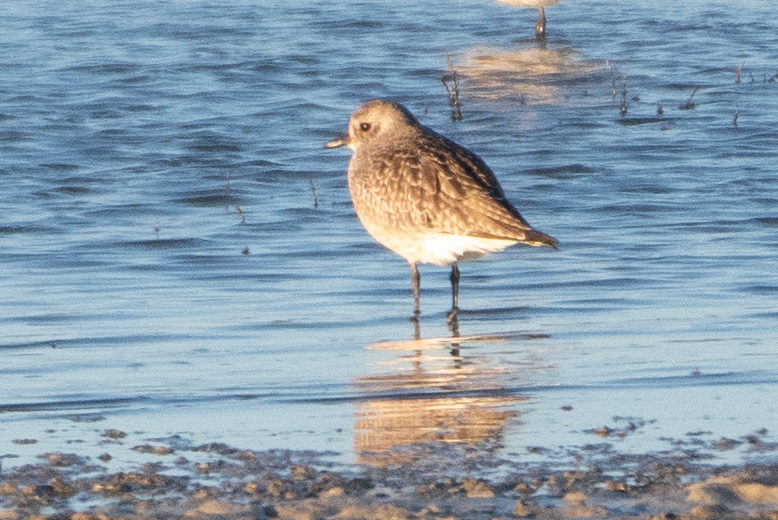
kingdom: Animalia
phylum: Chordata
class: Aves
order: Charadriiformes
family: Charadriidae
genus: Pluvialis
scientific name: Pluvialis squatarola
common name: Grey plover
